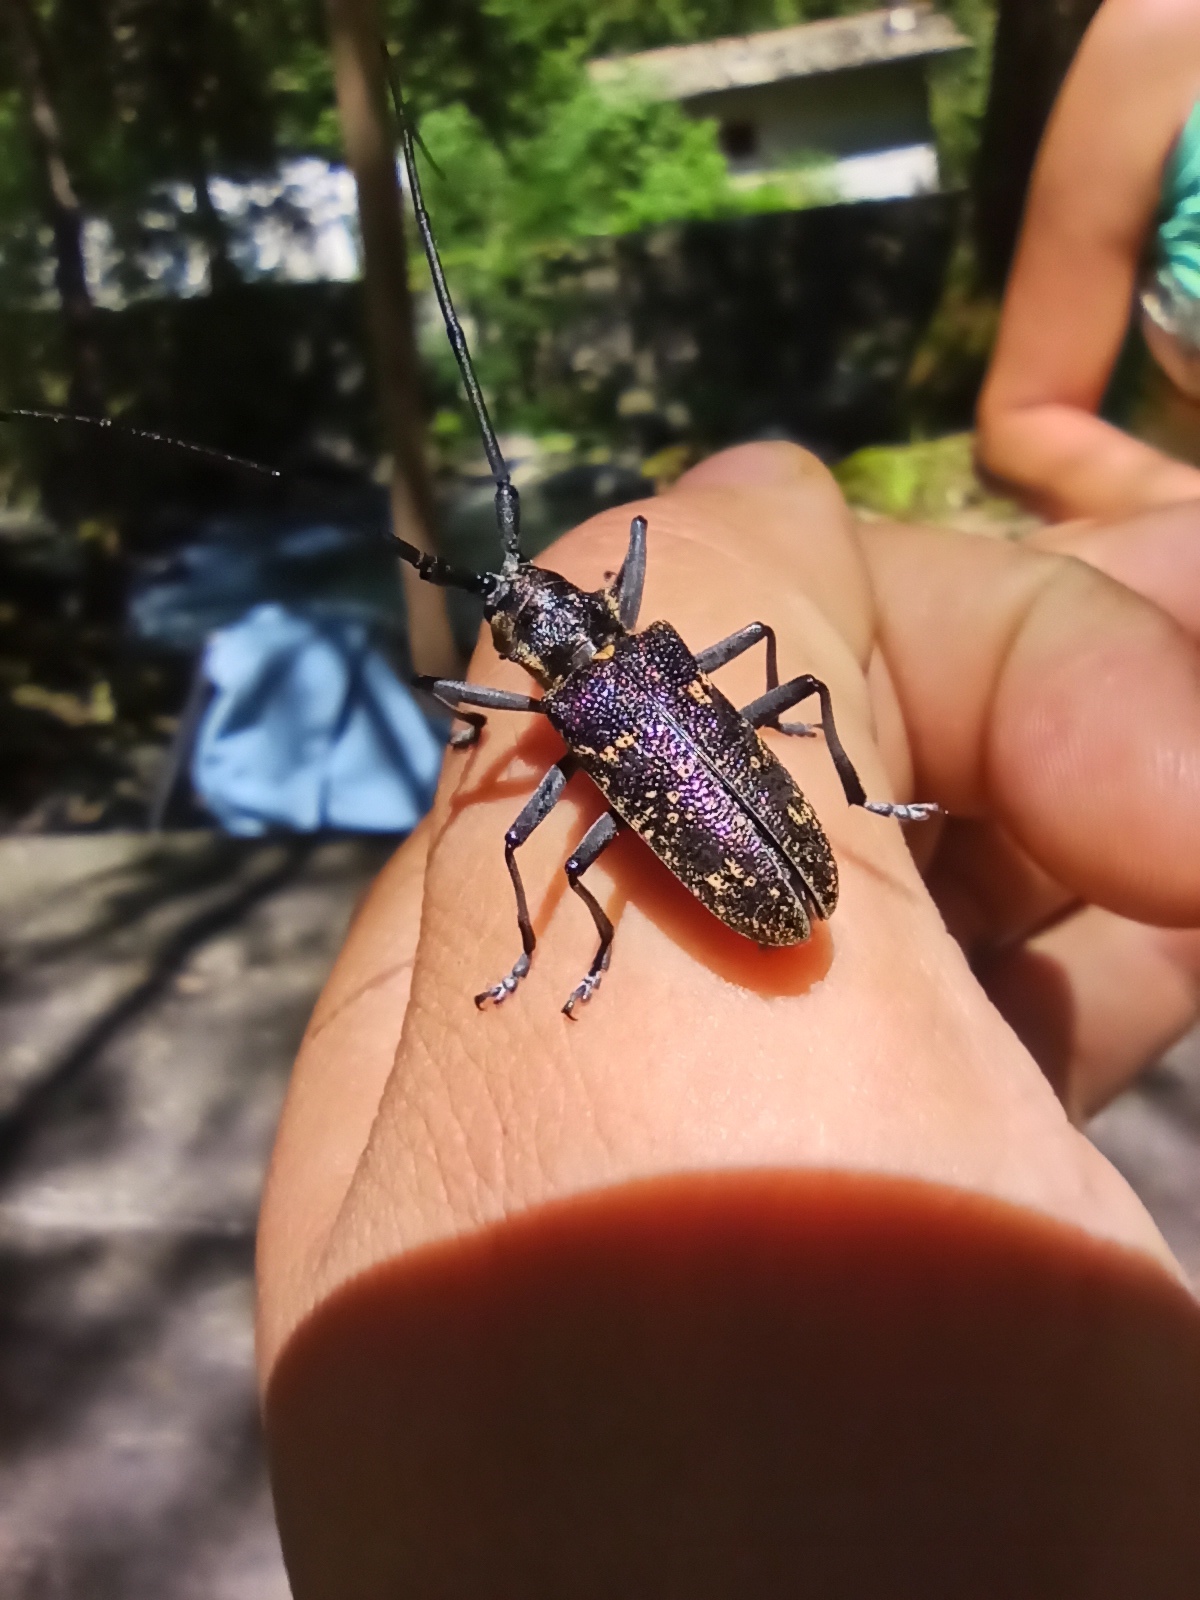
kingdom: Animalia
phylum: Arthropoda
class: Insecta
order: Coleoptera
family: Cerambycidae
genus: Monochamus
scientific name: Monochamus sutor
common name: Pine sawyer
